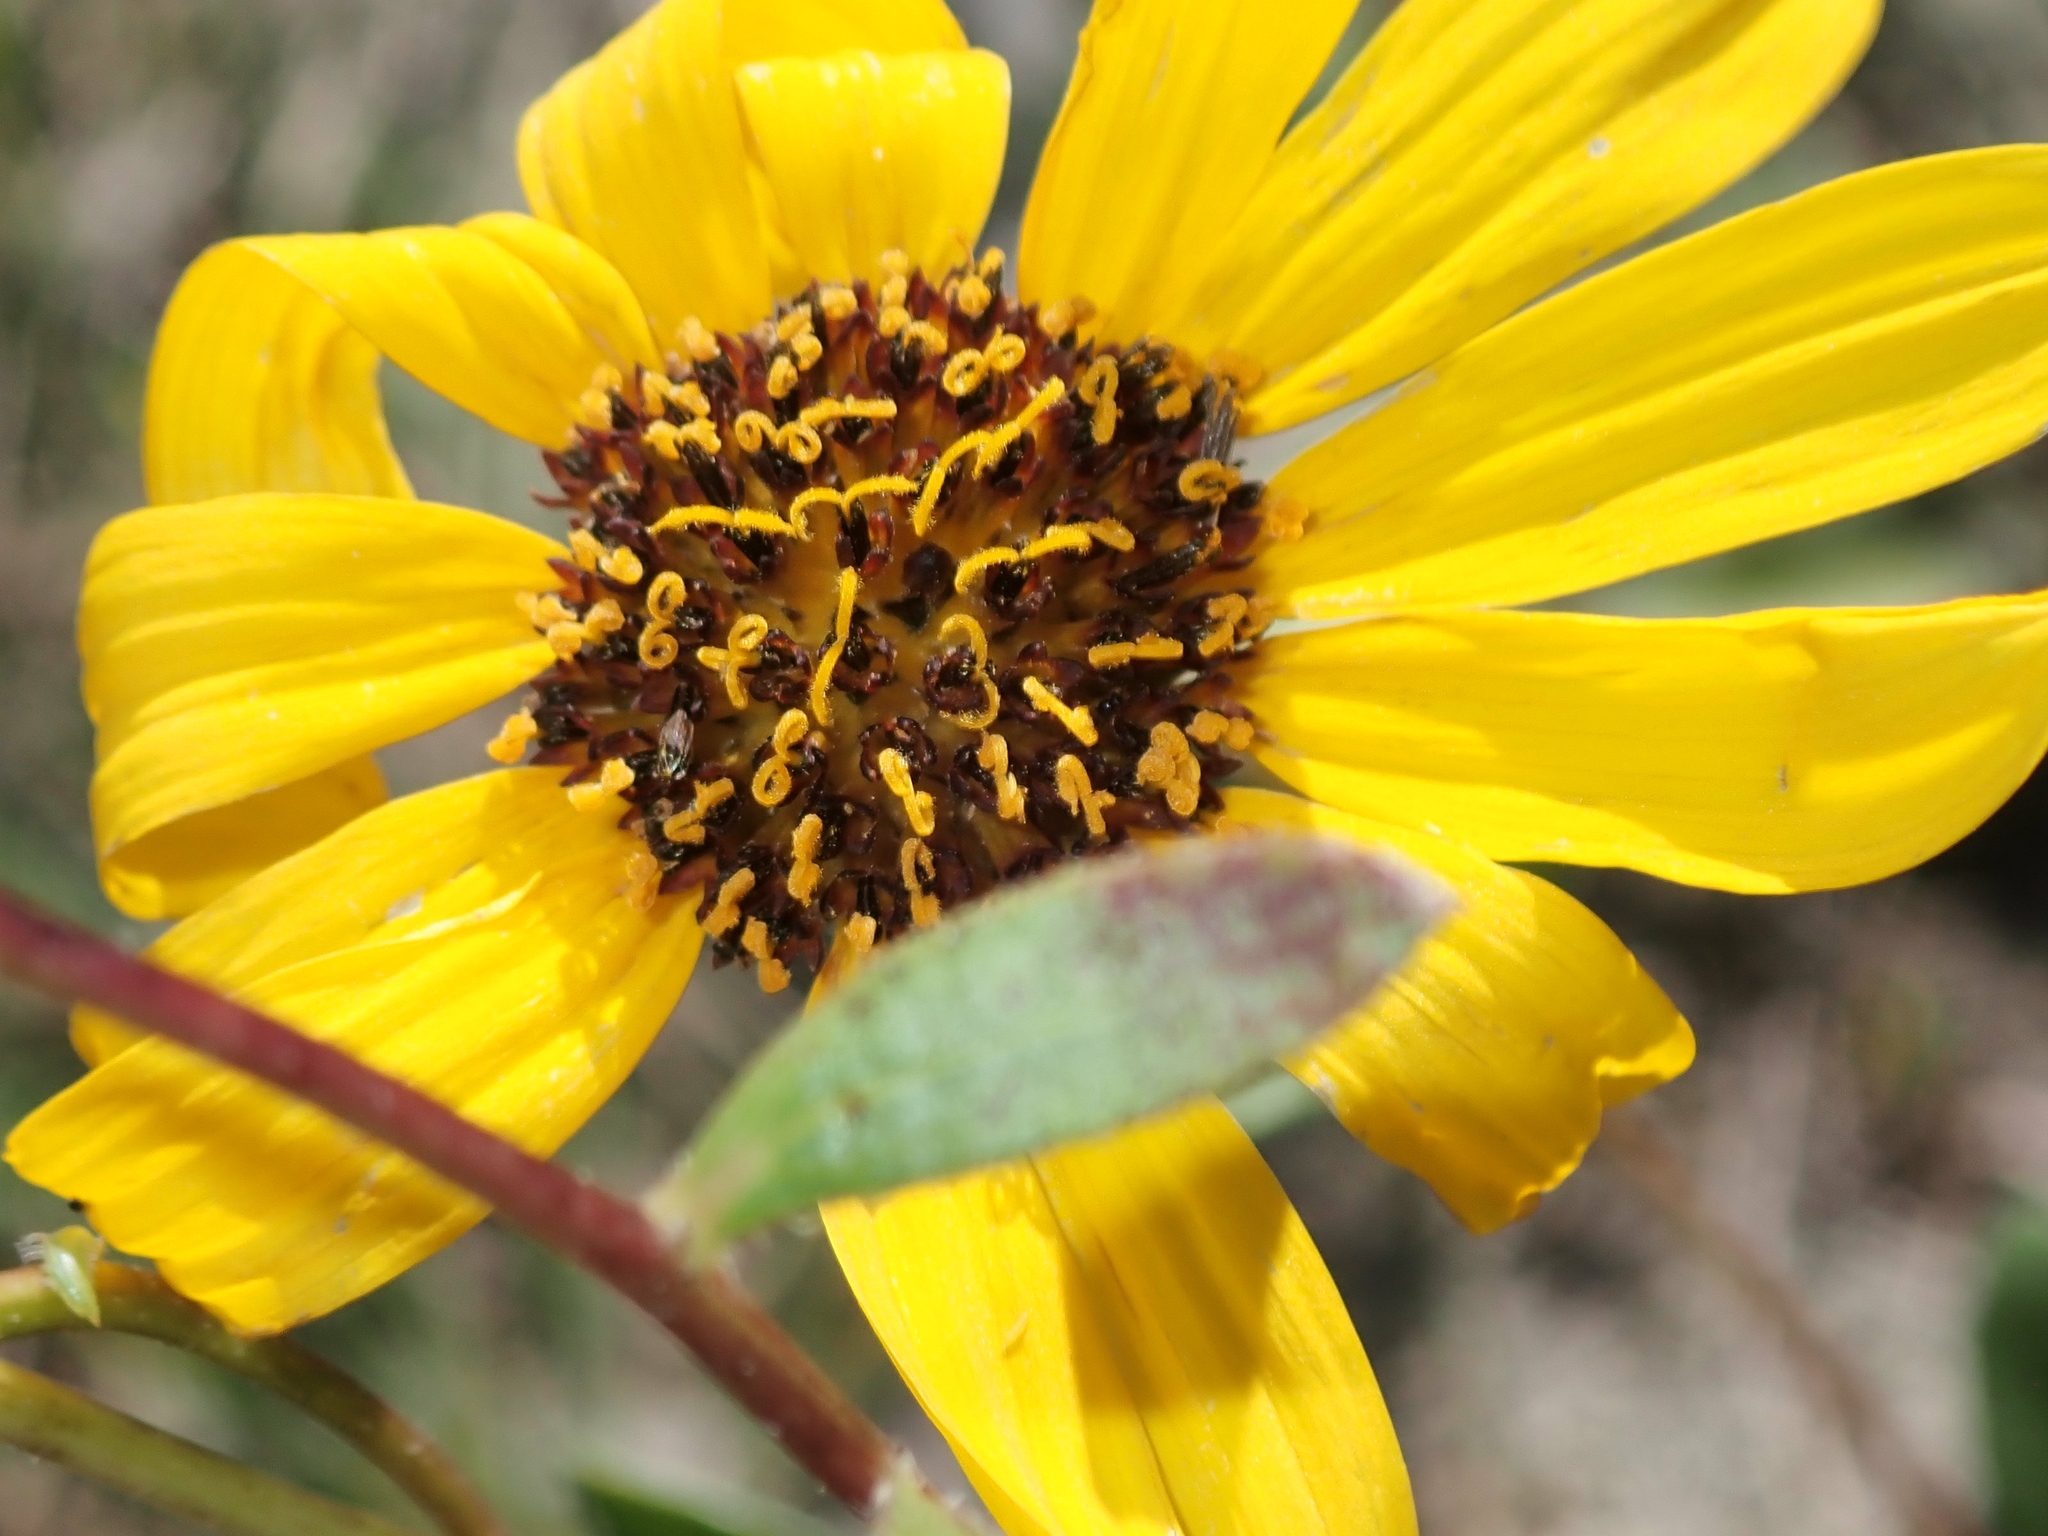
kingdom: Plantae
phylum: Tracheophyta
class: Magnoliopsida
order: Asterales
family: Asteraceae
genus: Helianthus
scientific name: Helianthus pauciflorus
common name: Stiff sunflower
